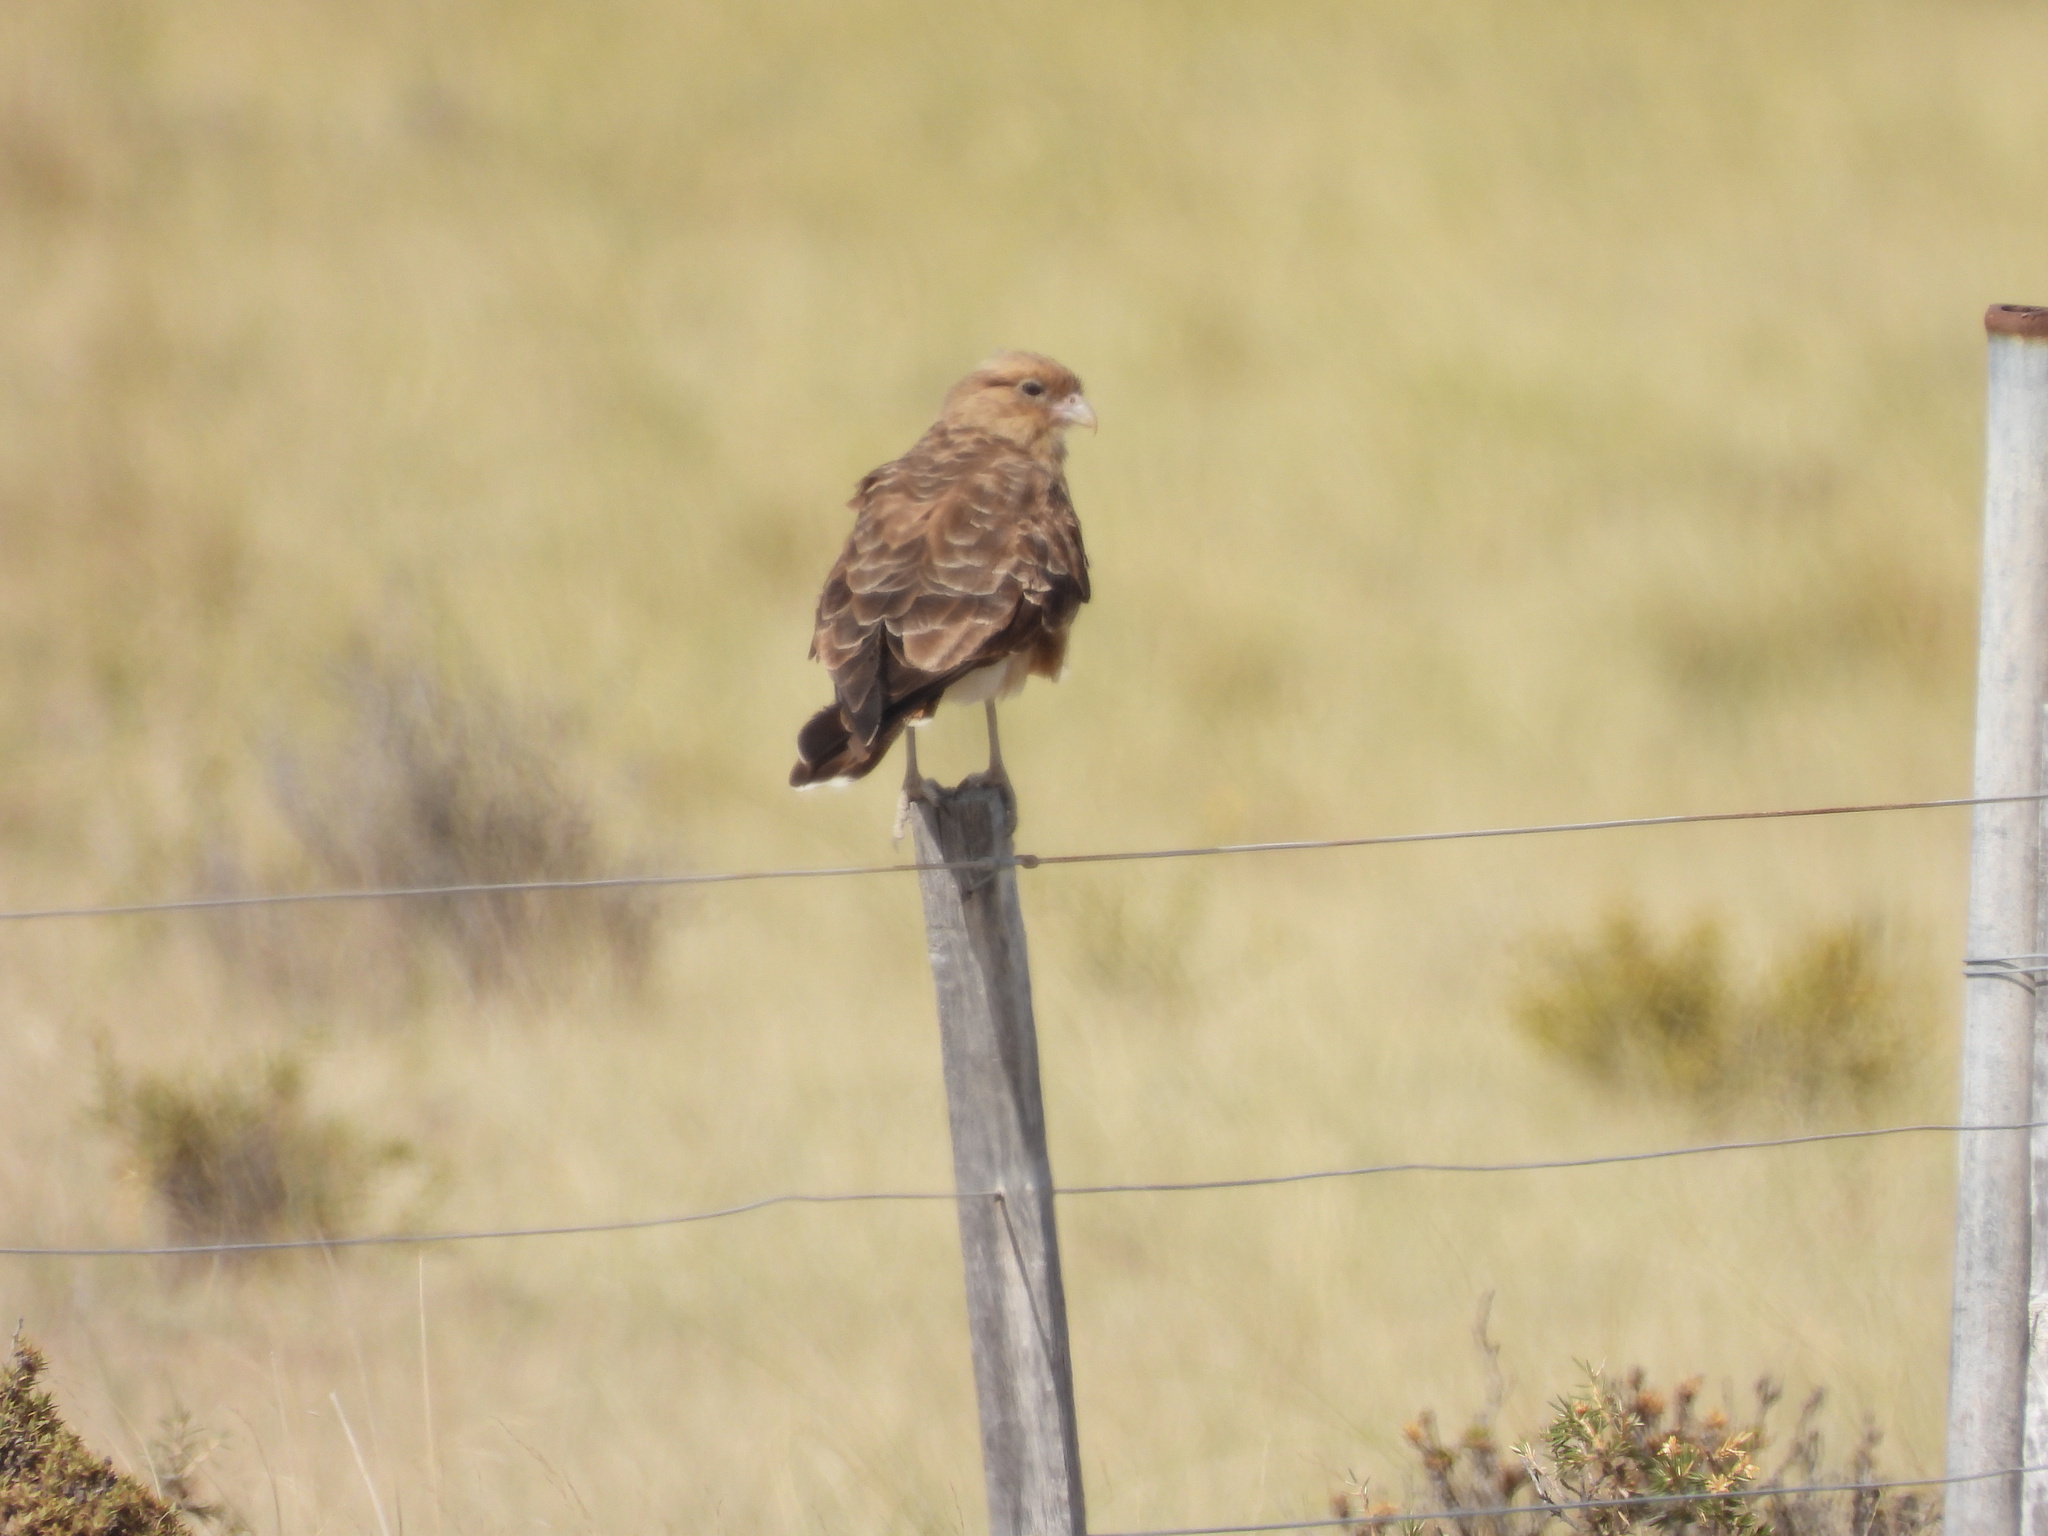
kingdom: Animalia
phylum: Chordata
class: Aves
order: Falconiformes
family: Falconidae
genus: Daptrius
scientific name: Daptrius
